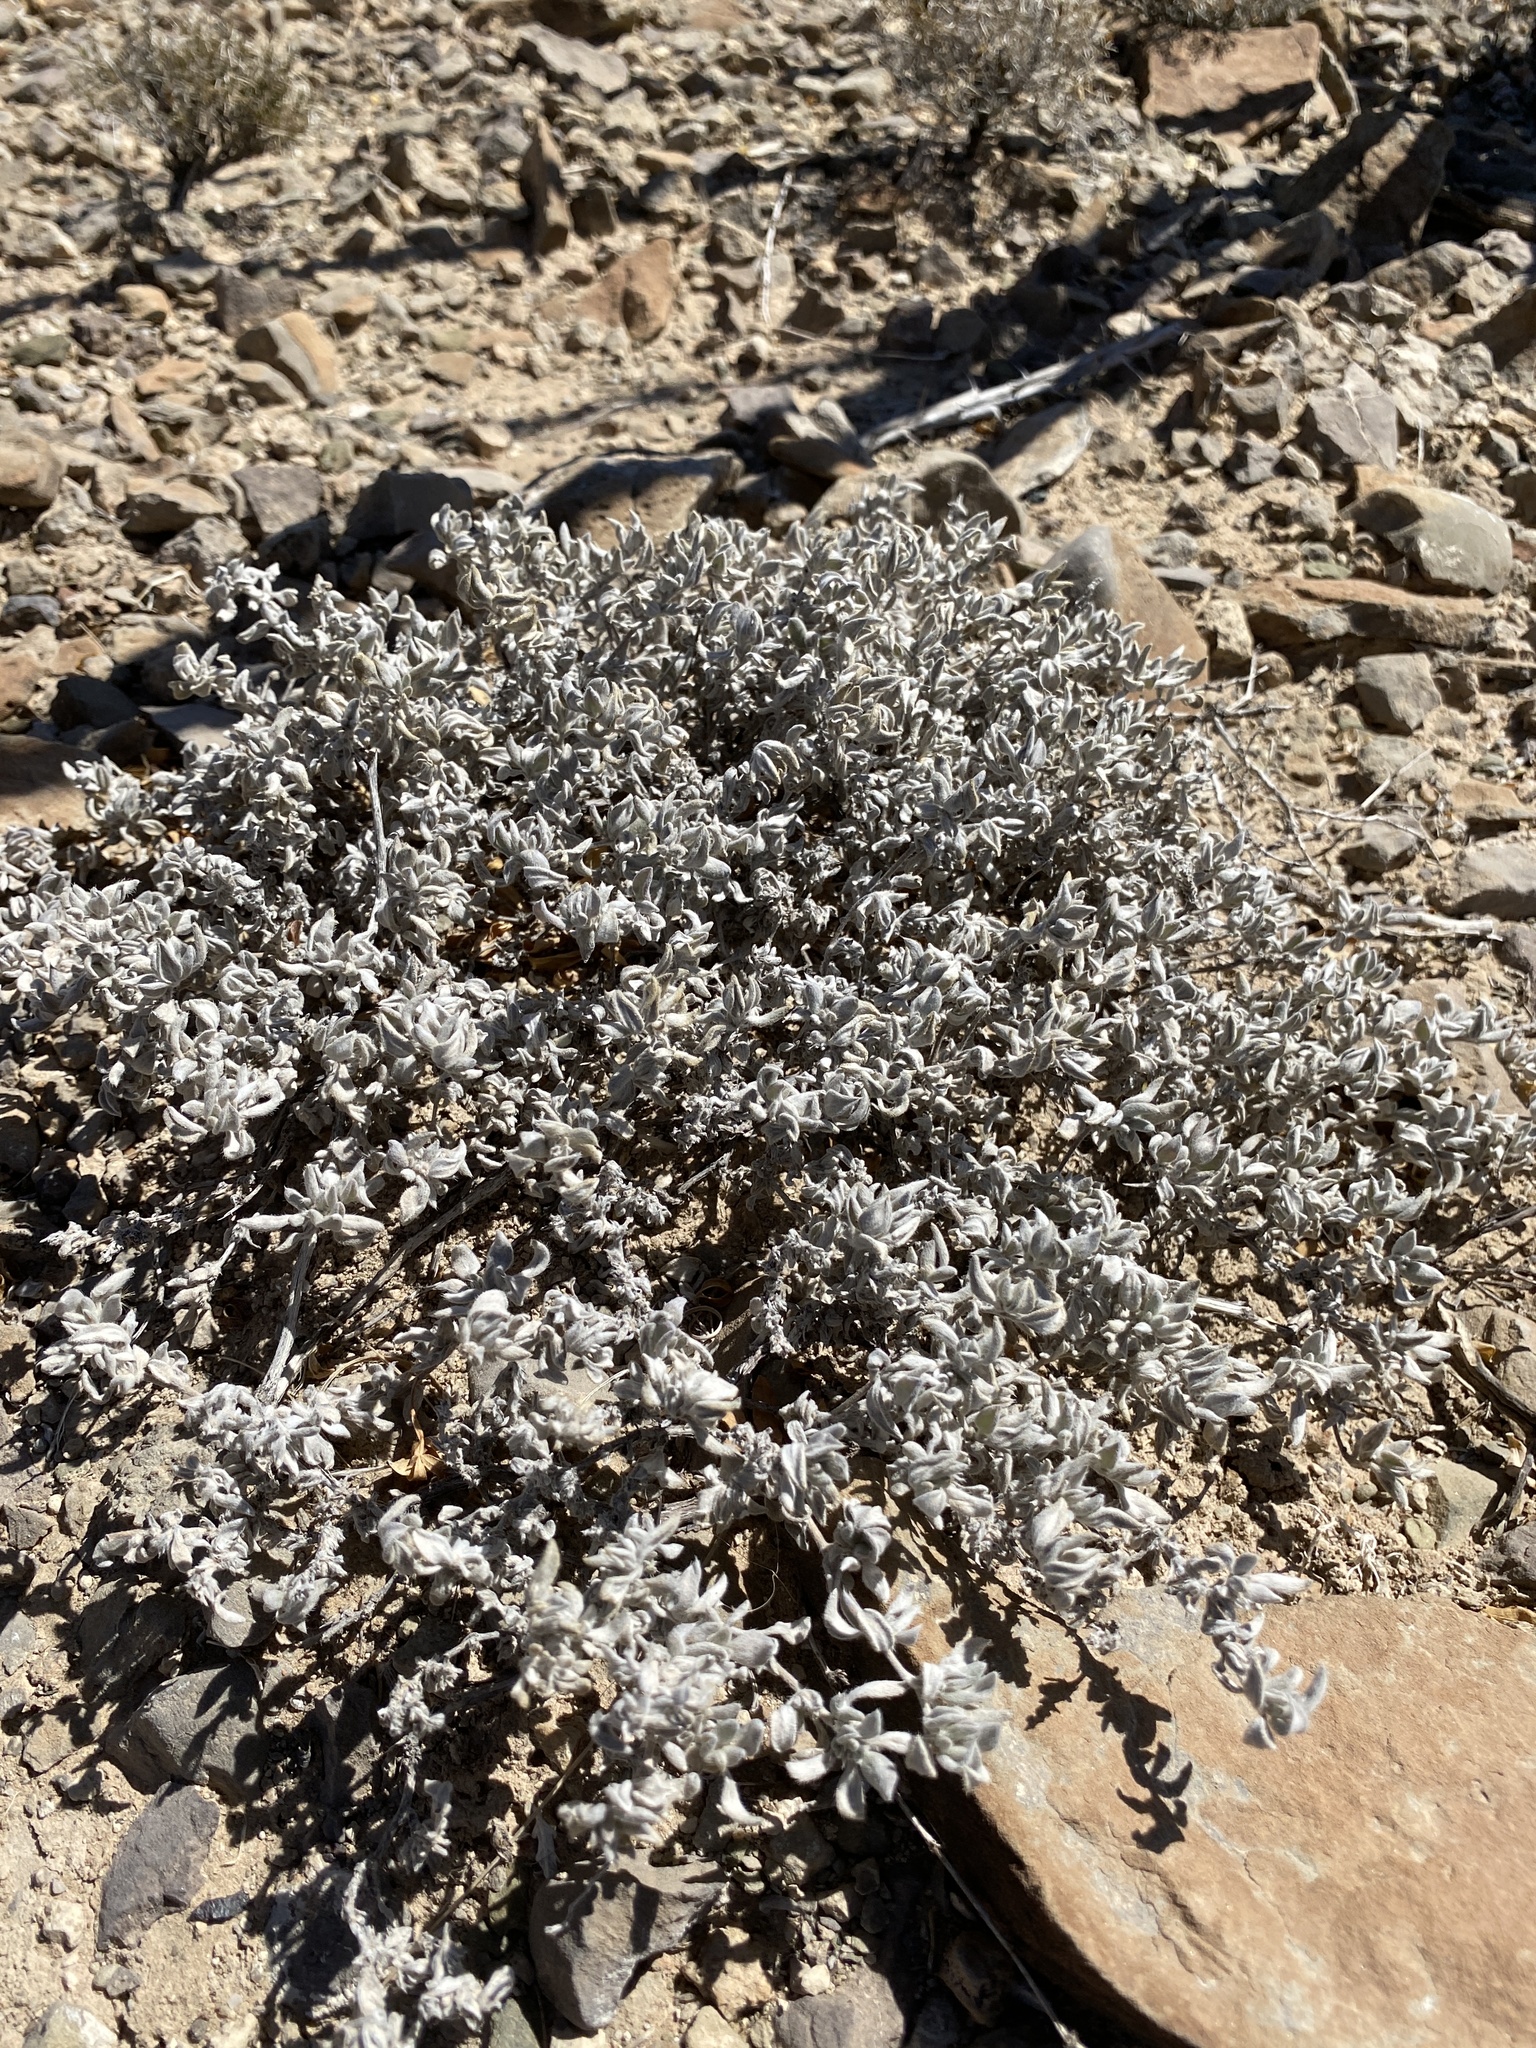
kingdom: Plantae
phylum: Tracheophyta
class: Magnoliopsida
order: Boraginales
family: Ehretiaceae
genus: Tiquilia
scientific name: Tiquilia canescens
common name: Hairy tiquilia
